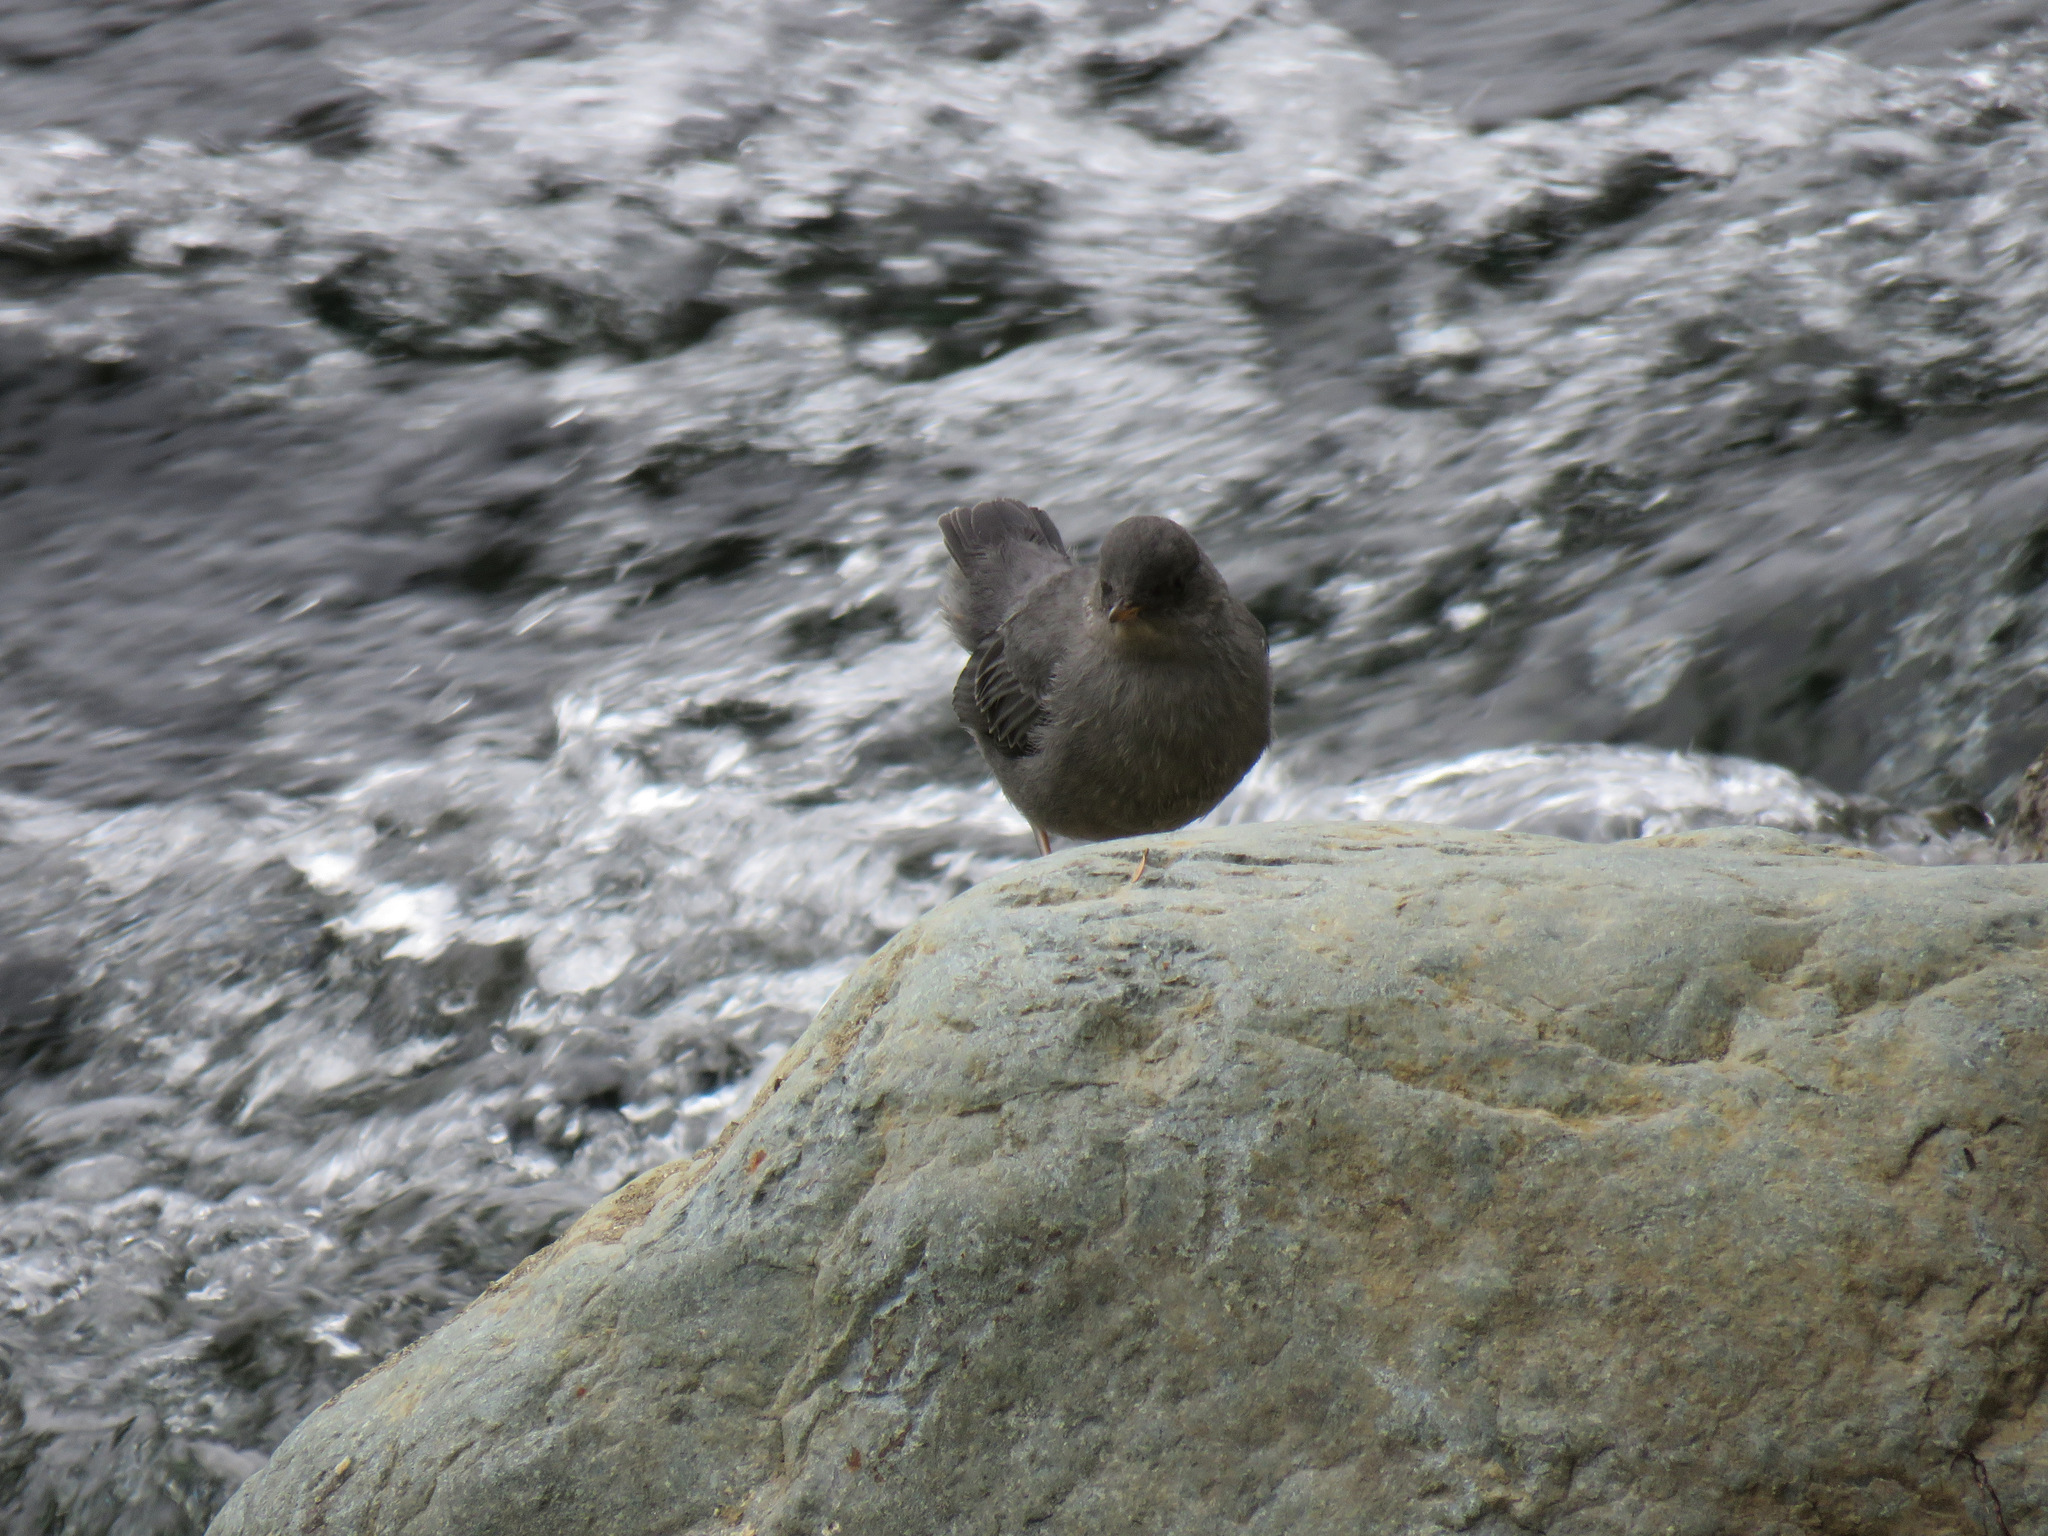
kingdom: Animalia
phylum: Chordata
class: Aves
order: Passeriformes
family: Cinclidae
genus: Cinclus
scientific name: Cinclus mexicanus
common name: American dipper
